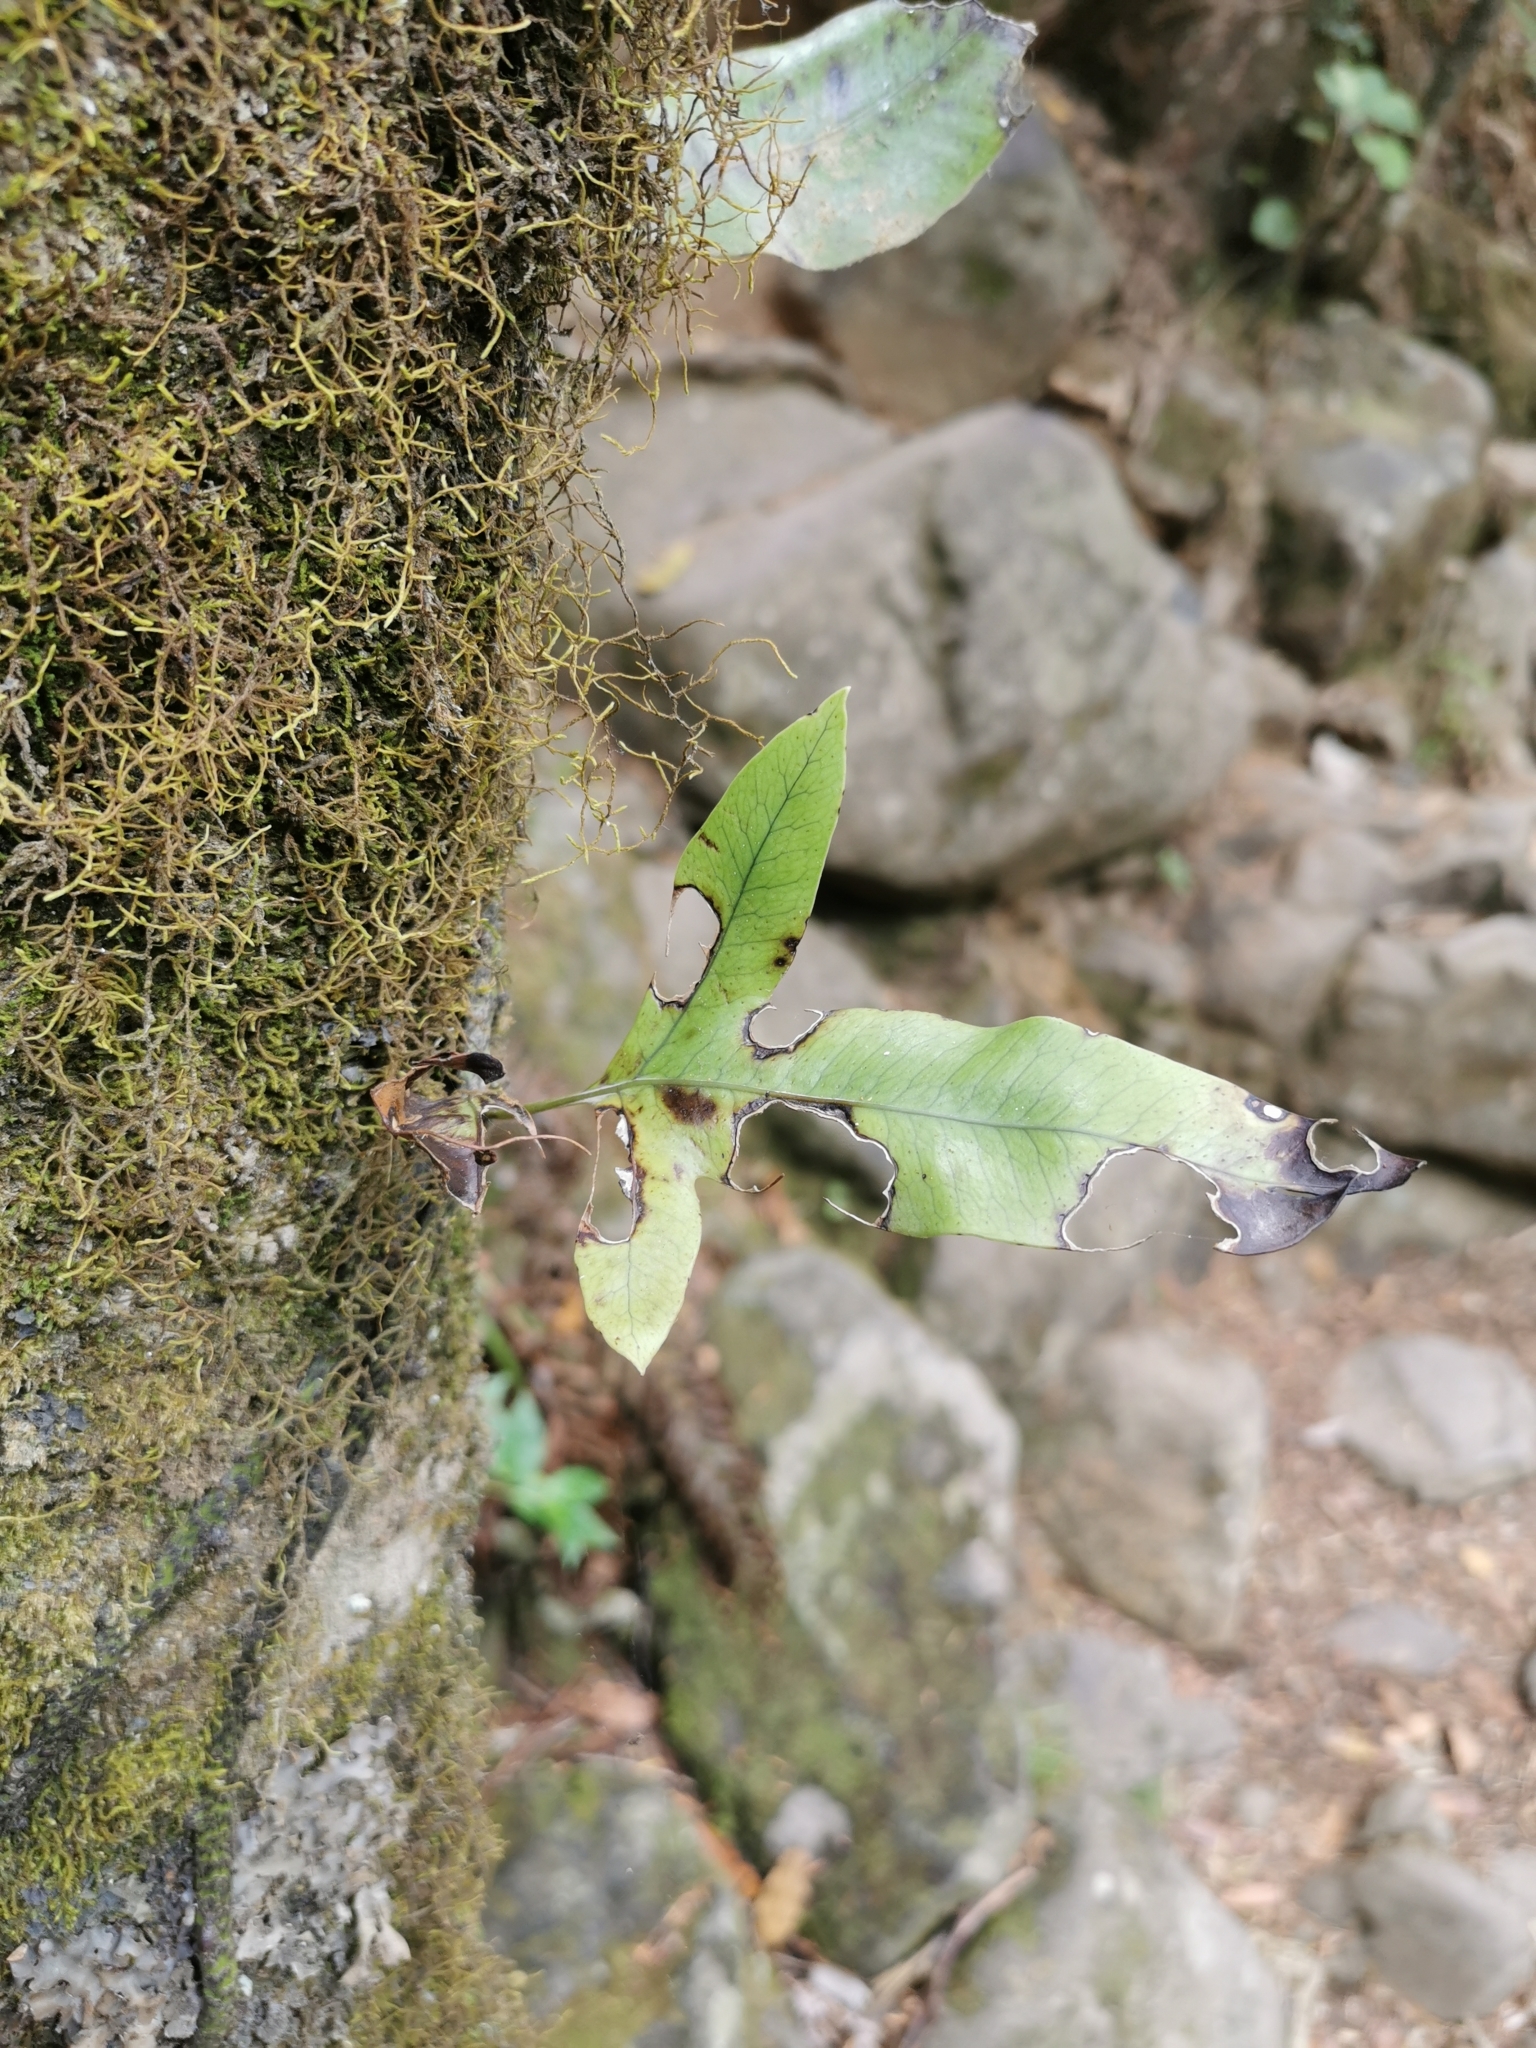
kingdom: Plantae
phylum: Tracheophyta
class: Polypodiopsida
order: Polypodiales
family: Polypodiaceae
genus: Lecanopteris
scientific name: Lecanopteris pustulata
